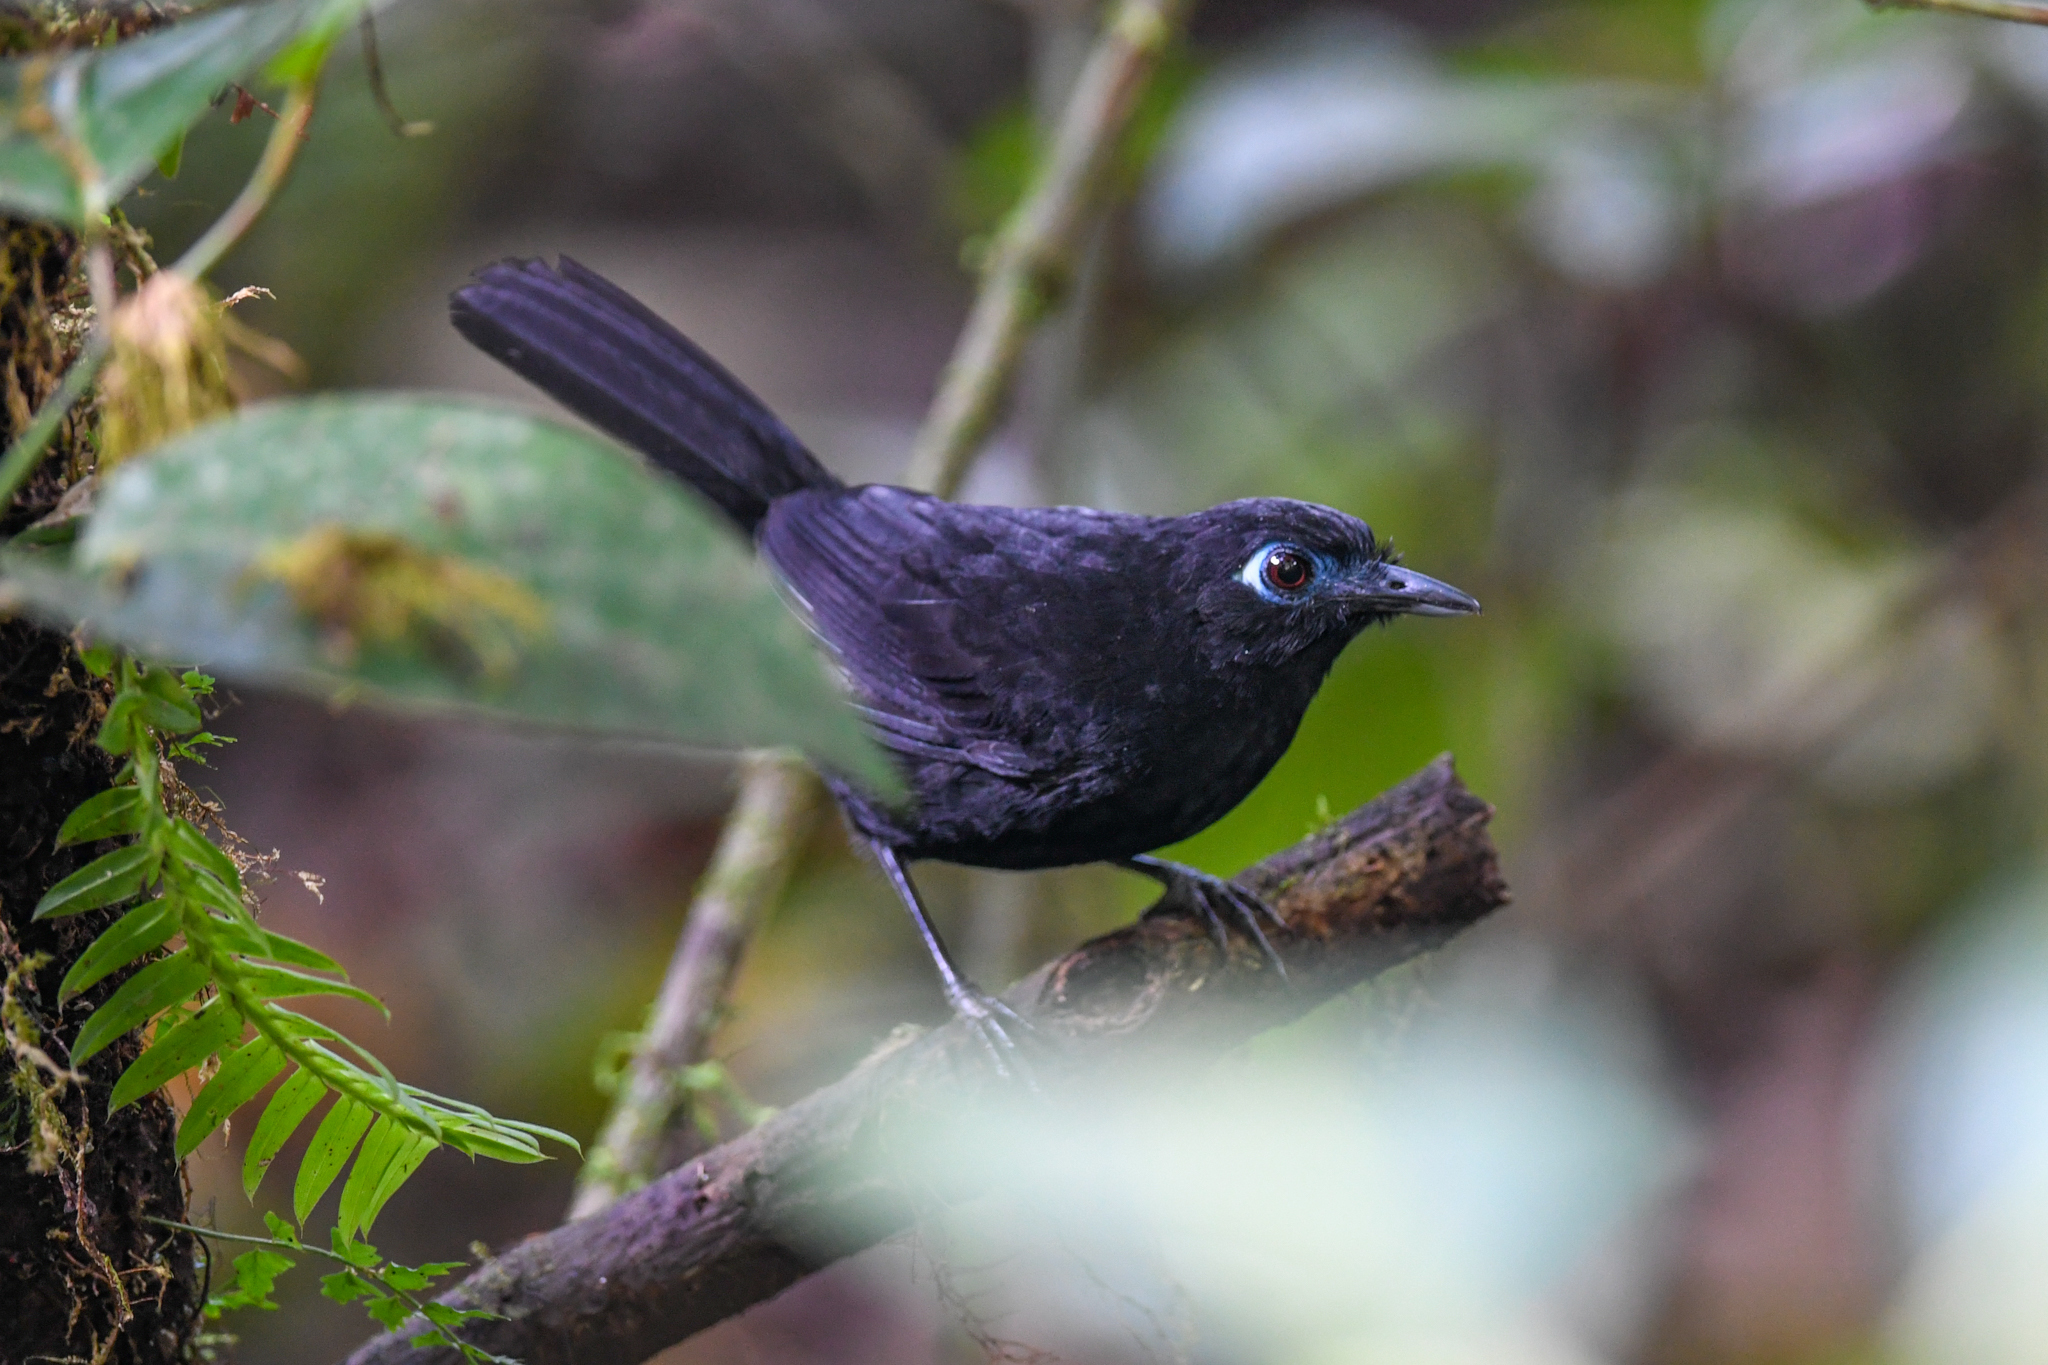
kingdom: Animalia
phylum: Chordata
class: Aves
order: Passeriformes
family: Thamnophilidae
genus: Hafferia
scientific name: Hafferia zeledoni
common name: Zeledon's antbird
